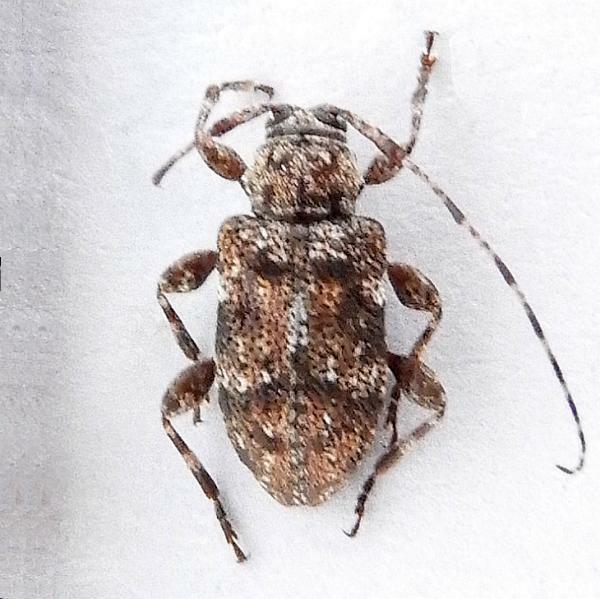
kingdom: Animalia
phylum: Arthropoda
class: Insecta
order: Coleoptera
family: Cerambycidae
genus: Astylopsis
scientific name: Astylopsis sexguttata
